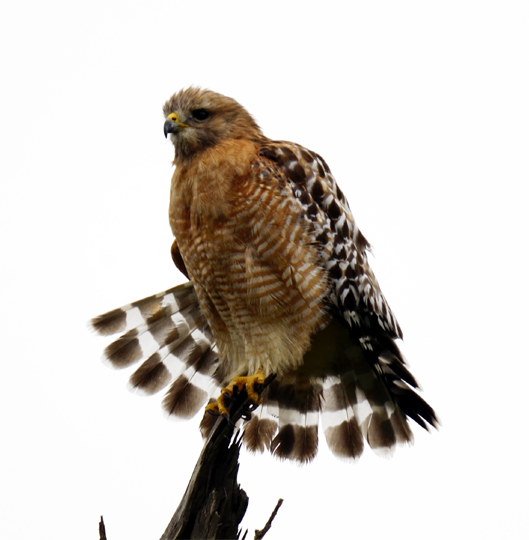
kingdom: Animalia
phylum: Chordata
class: Aves
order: Accipitriformes
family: Accipitridae
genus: Buteo
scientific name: Buteo lineatus
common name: Red-shouldered hawk
